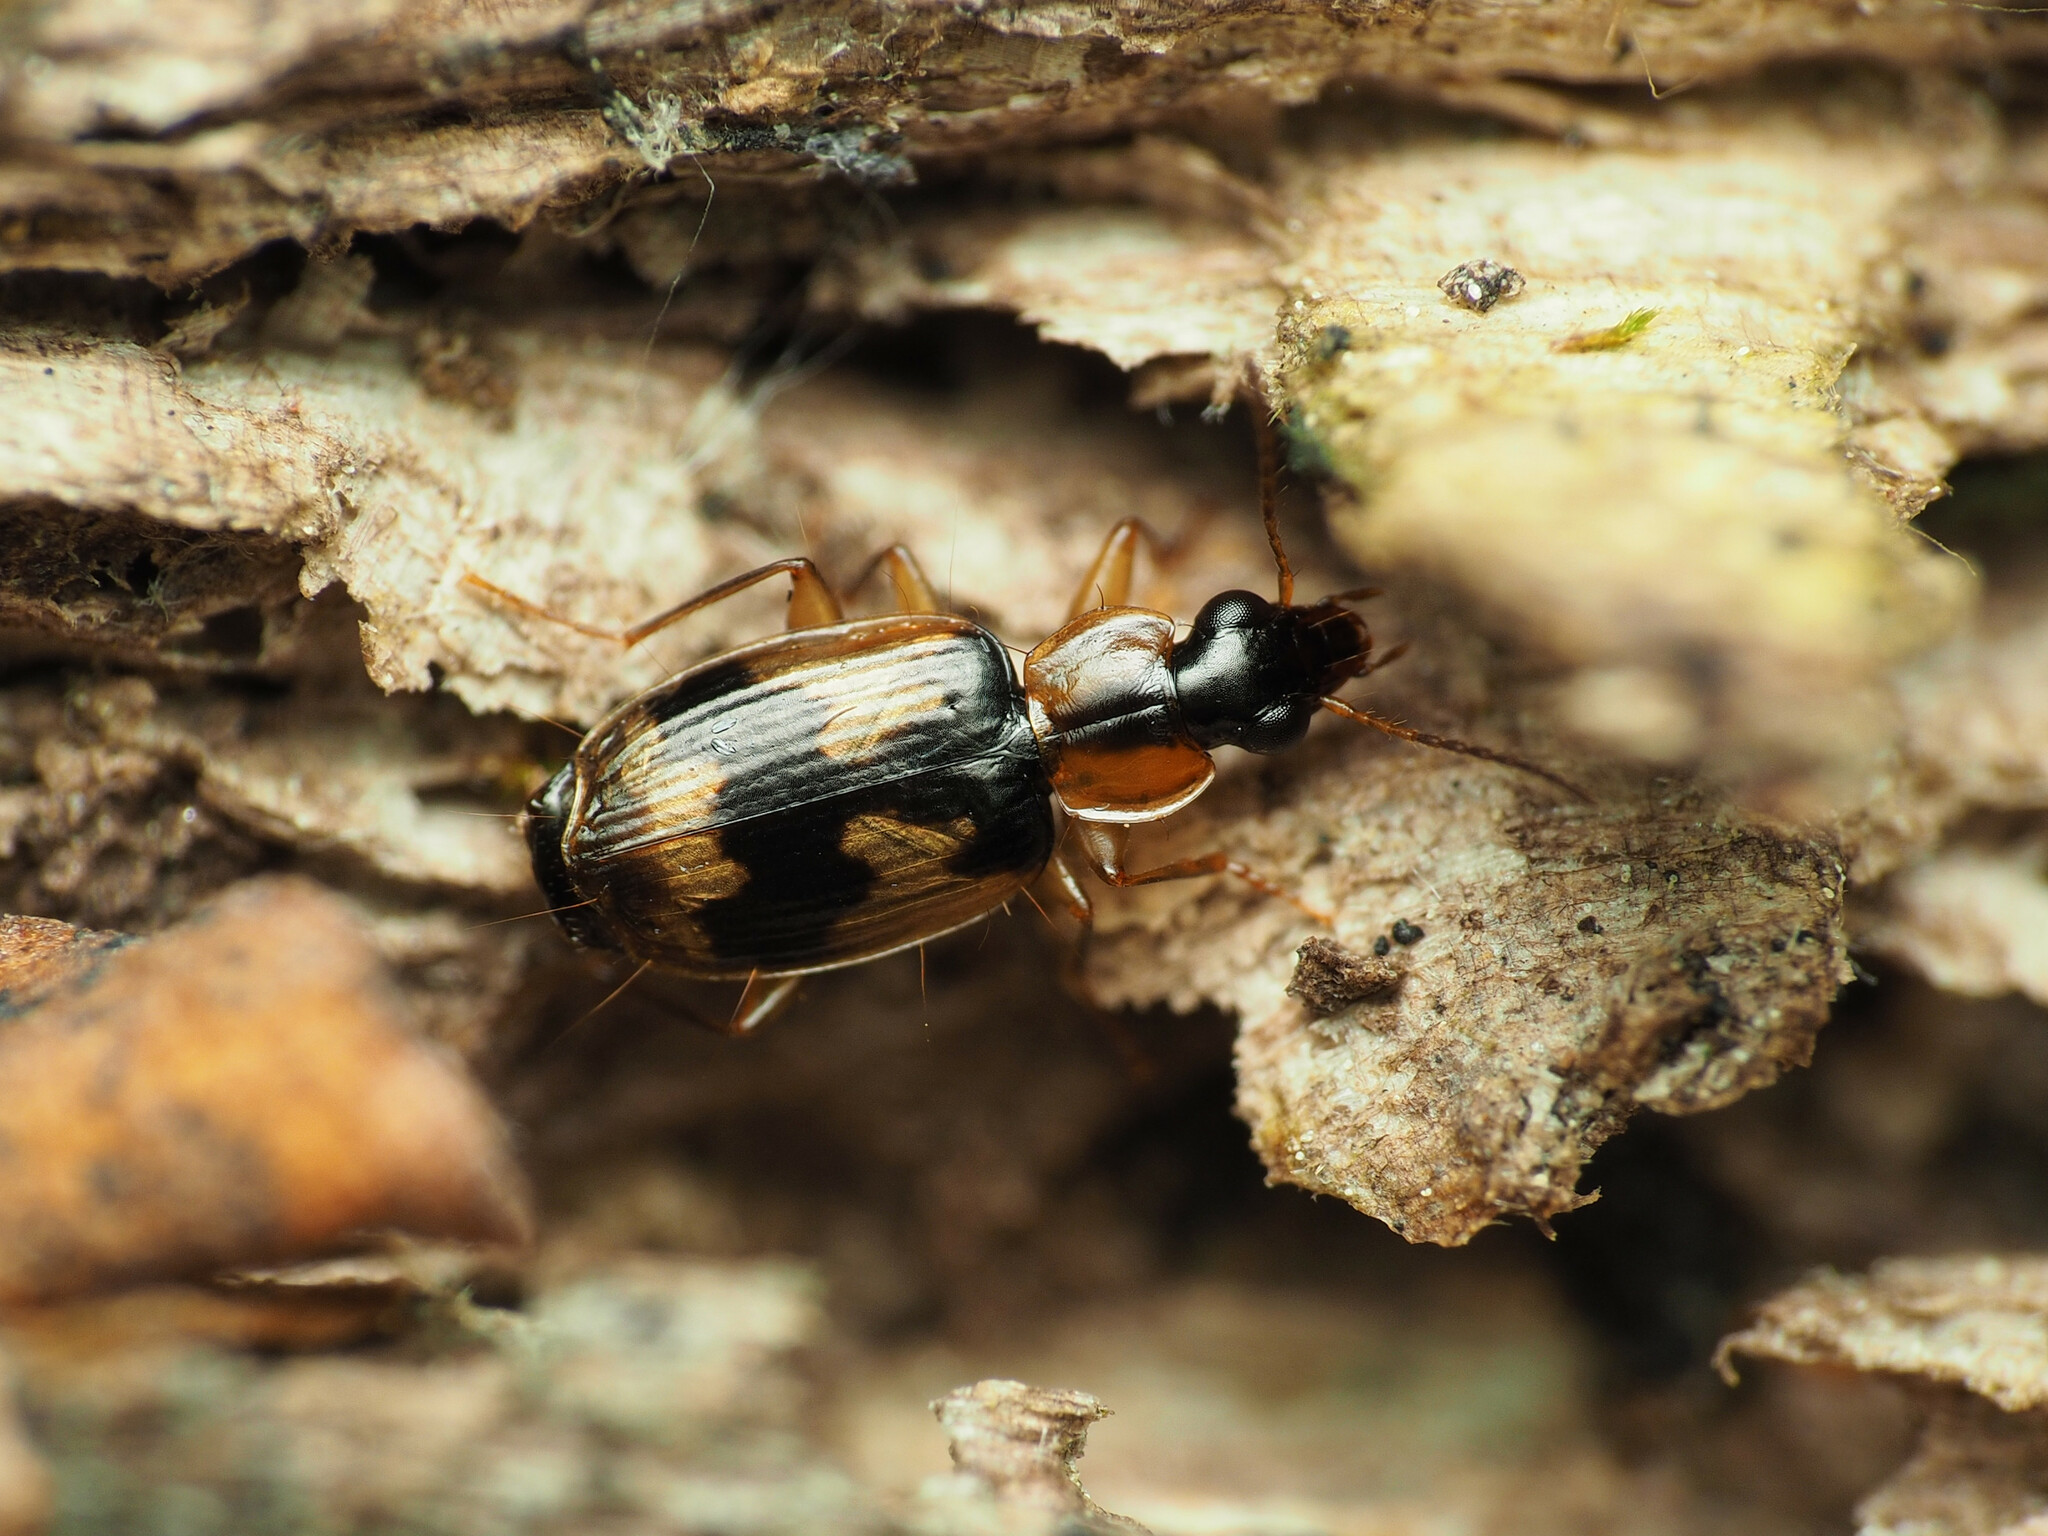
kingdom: Animalia
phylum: Arthropoda
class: Insecta
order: Coleoptera
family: Carabidae
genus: Phloeoxena
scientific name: Phloeoxena signata
